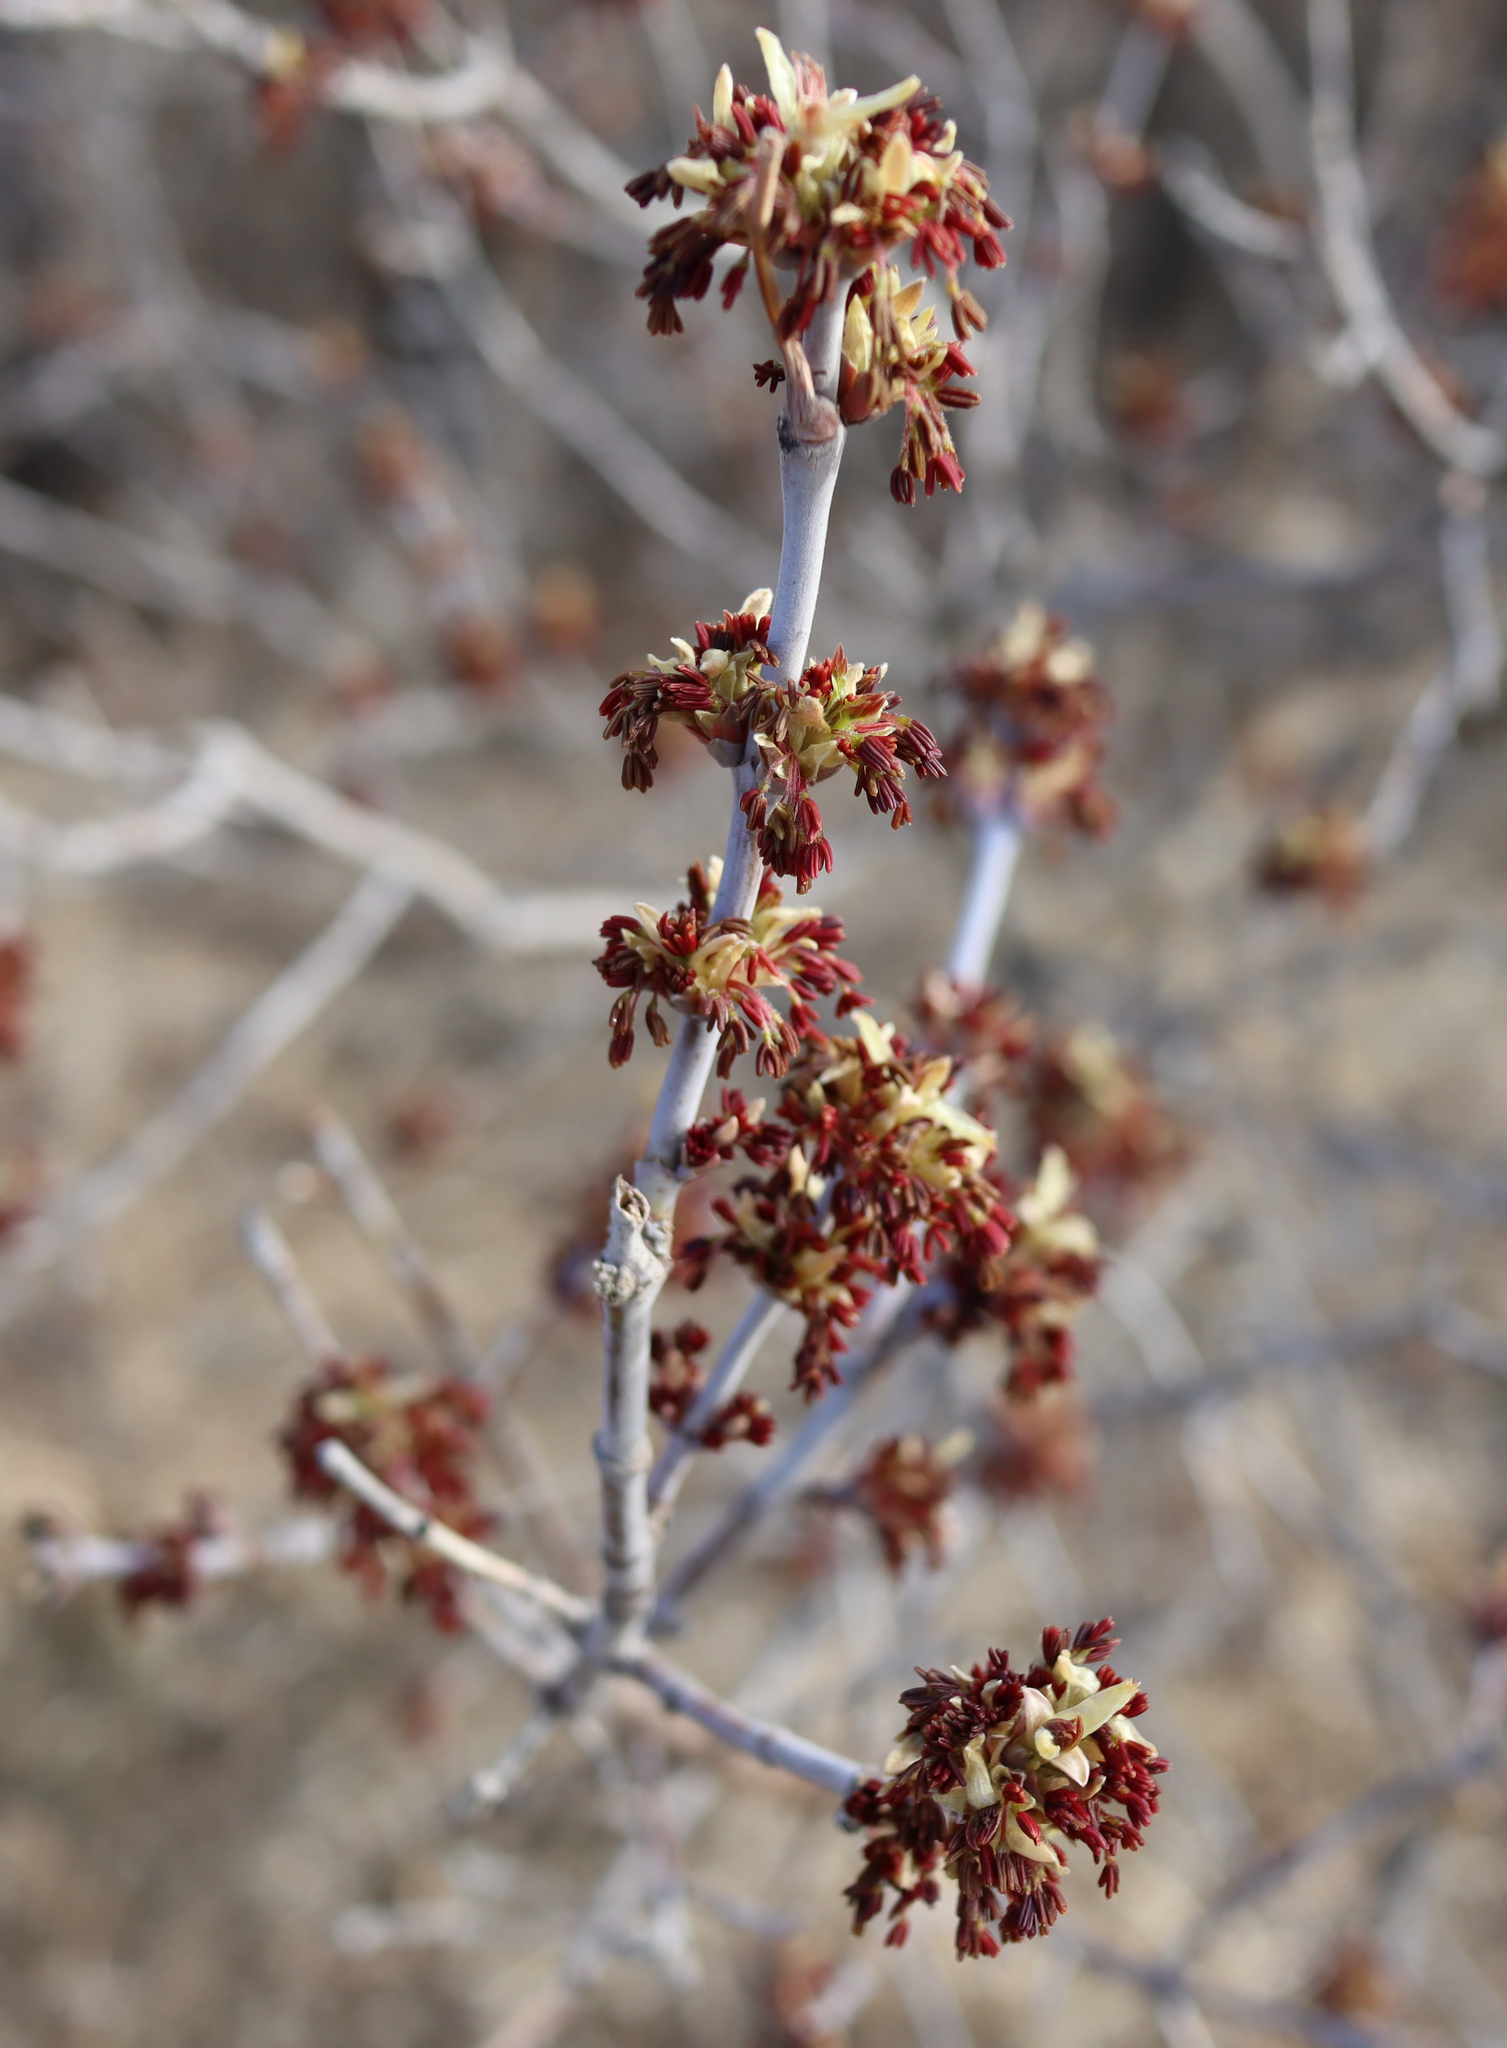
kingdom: Plantae
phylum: Tracheophyta
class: Magnoliopsida
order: Sapindales
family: Sapindaceae
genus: Acer
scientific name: Acer negundo
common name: Ashleaf maple
